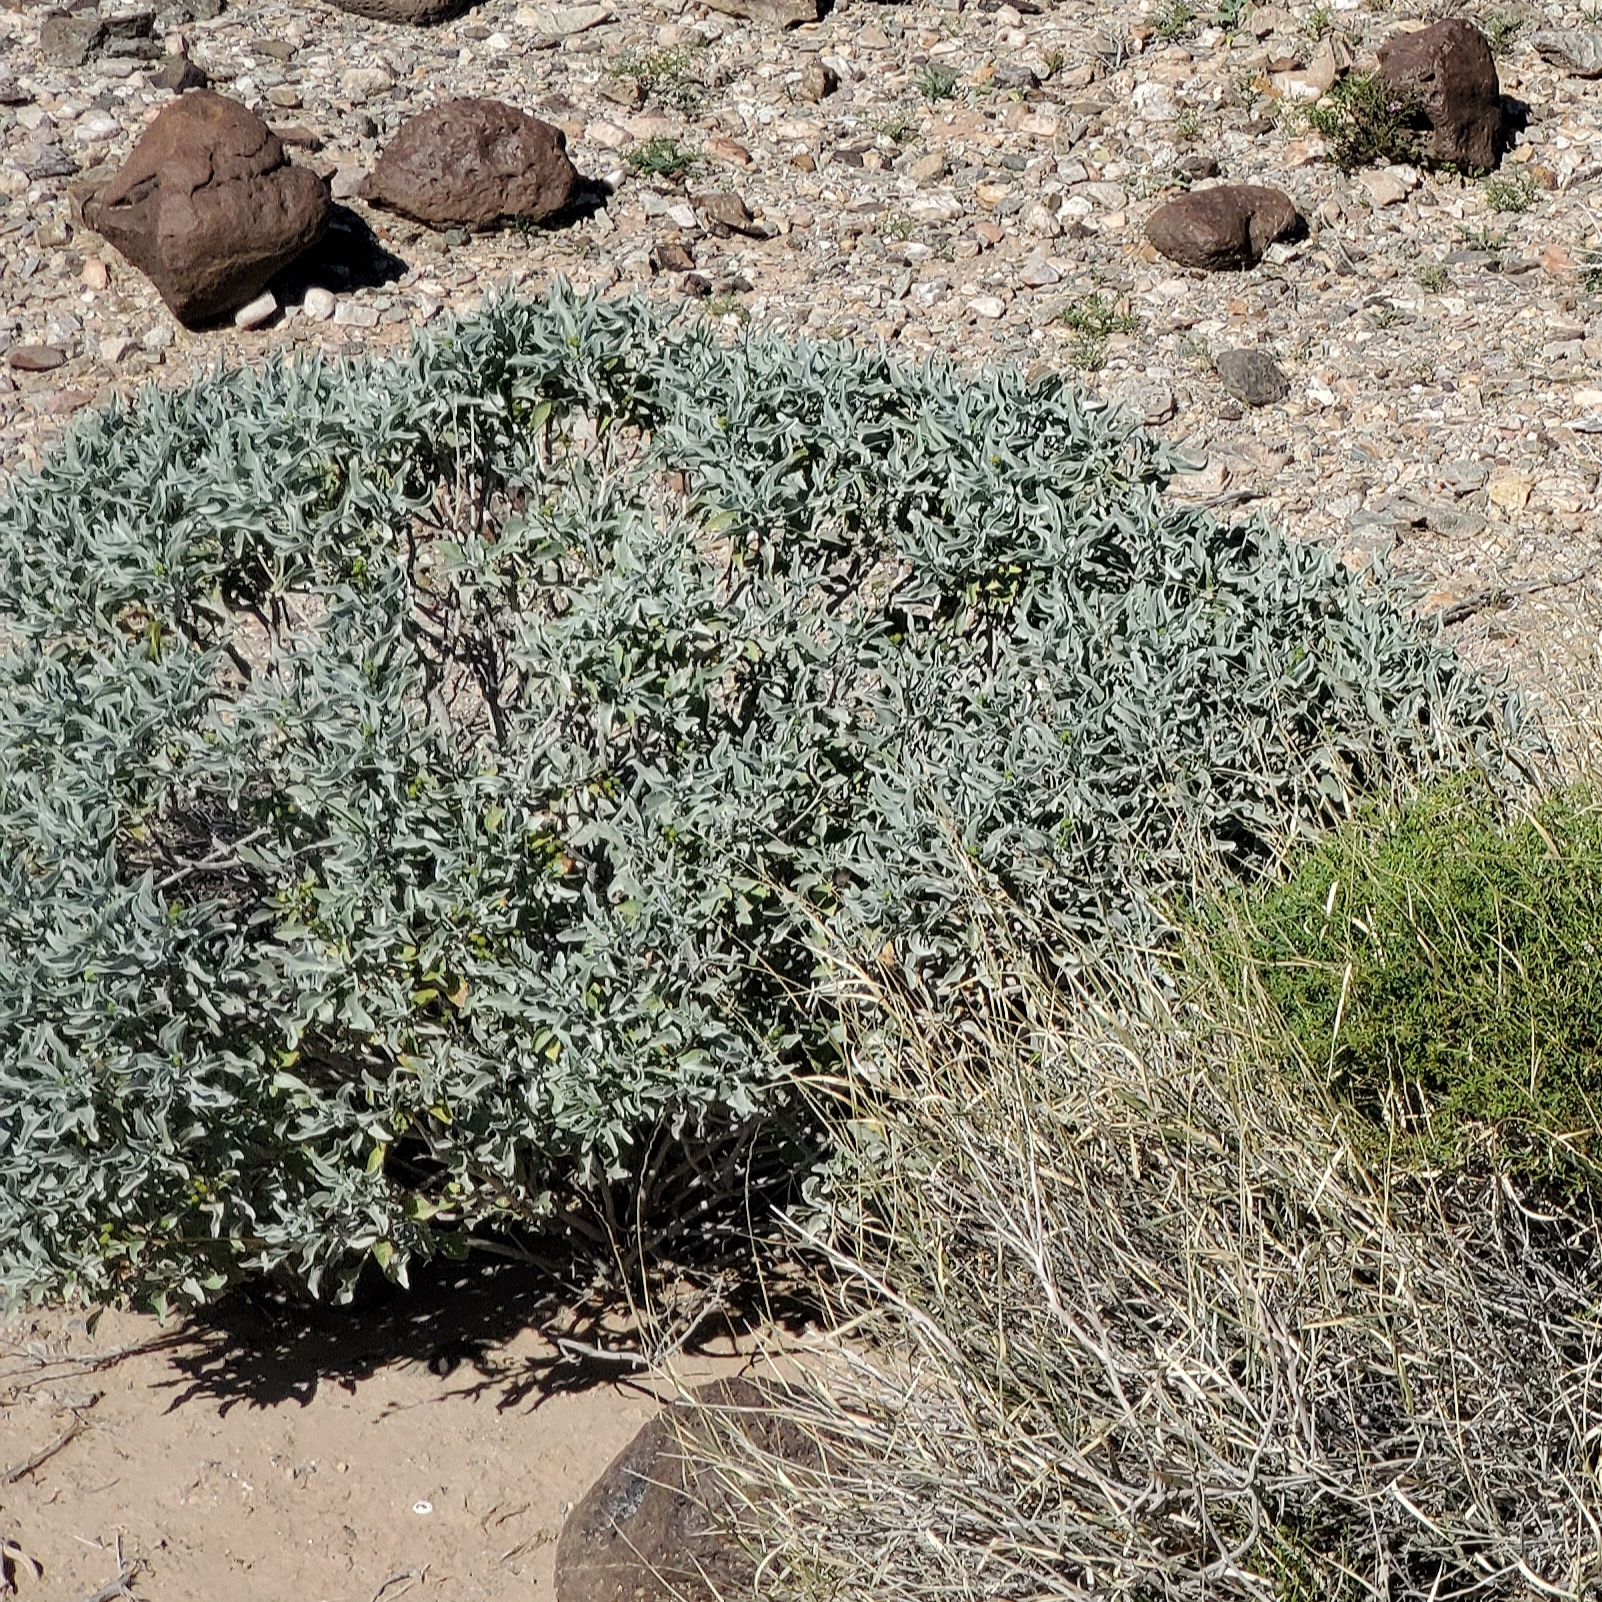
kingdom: Plantae
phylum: Tracheophyta
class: Magnoliopsida
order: Asterales
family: Asteraceae
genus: Encelia
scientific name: Encelia farinosa
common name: Brittlebush
